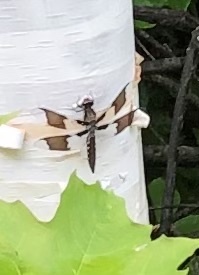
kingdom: Animalia
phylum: Arthropoda
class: Insecta
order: Odonata
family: Libellulidae
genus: Plathemis
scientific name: Plathemis lydia
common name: Common whitetail
